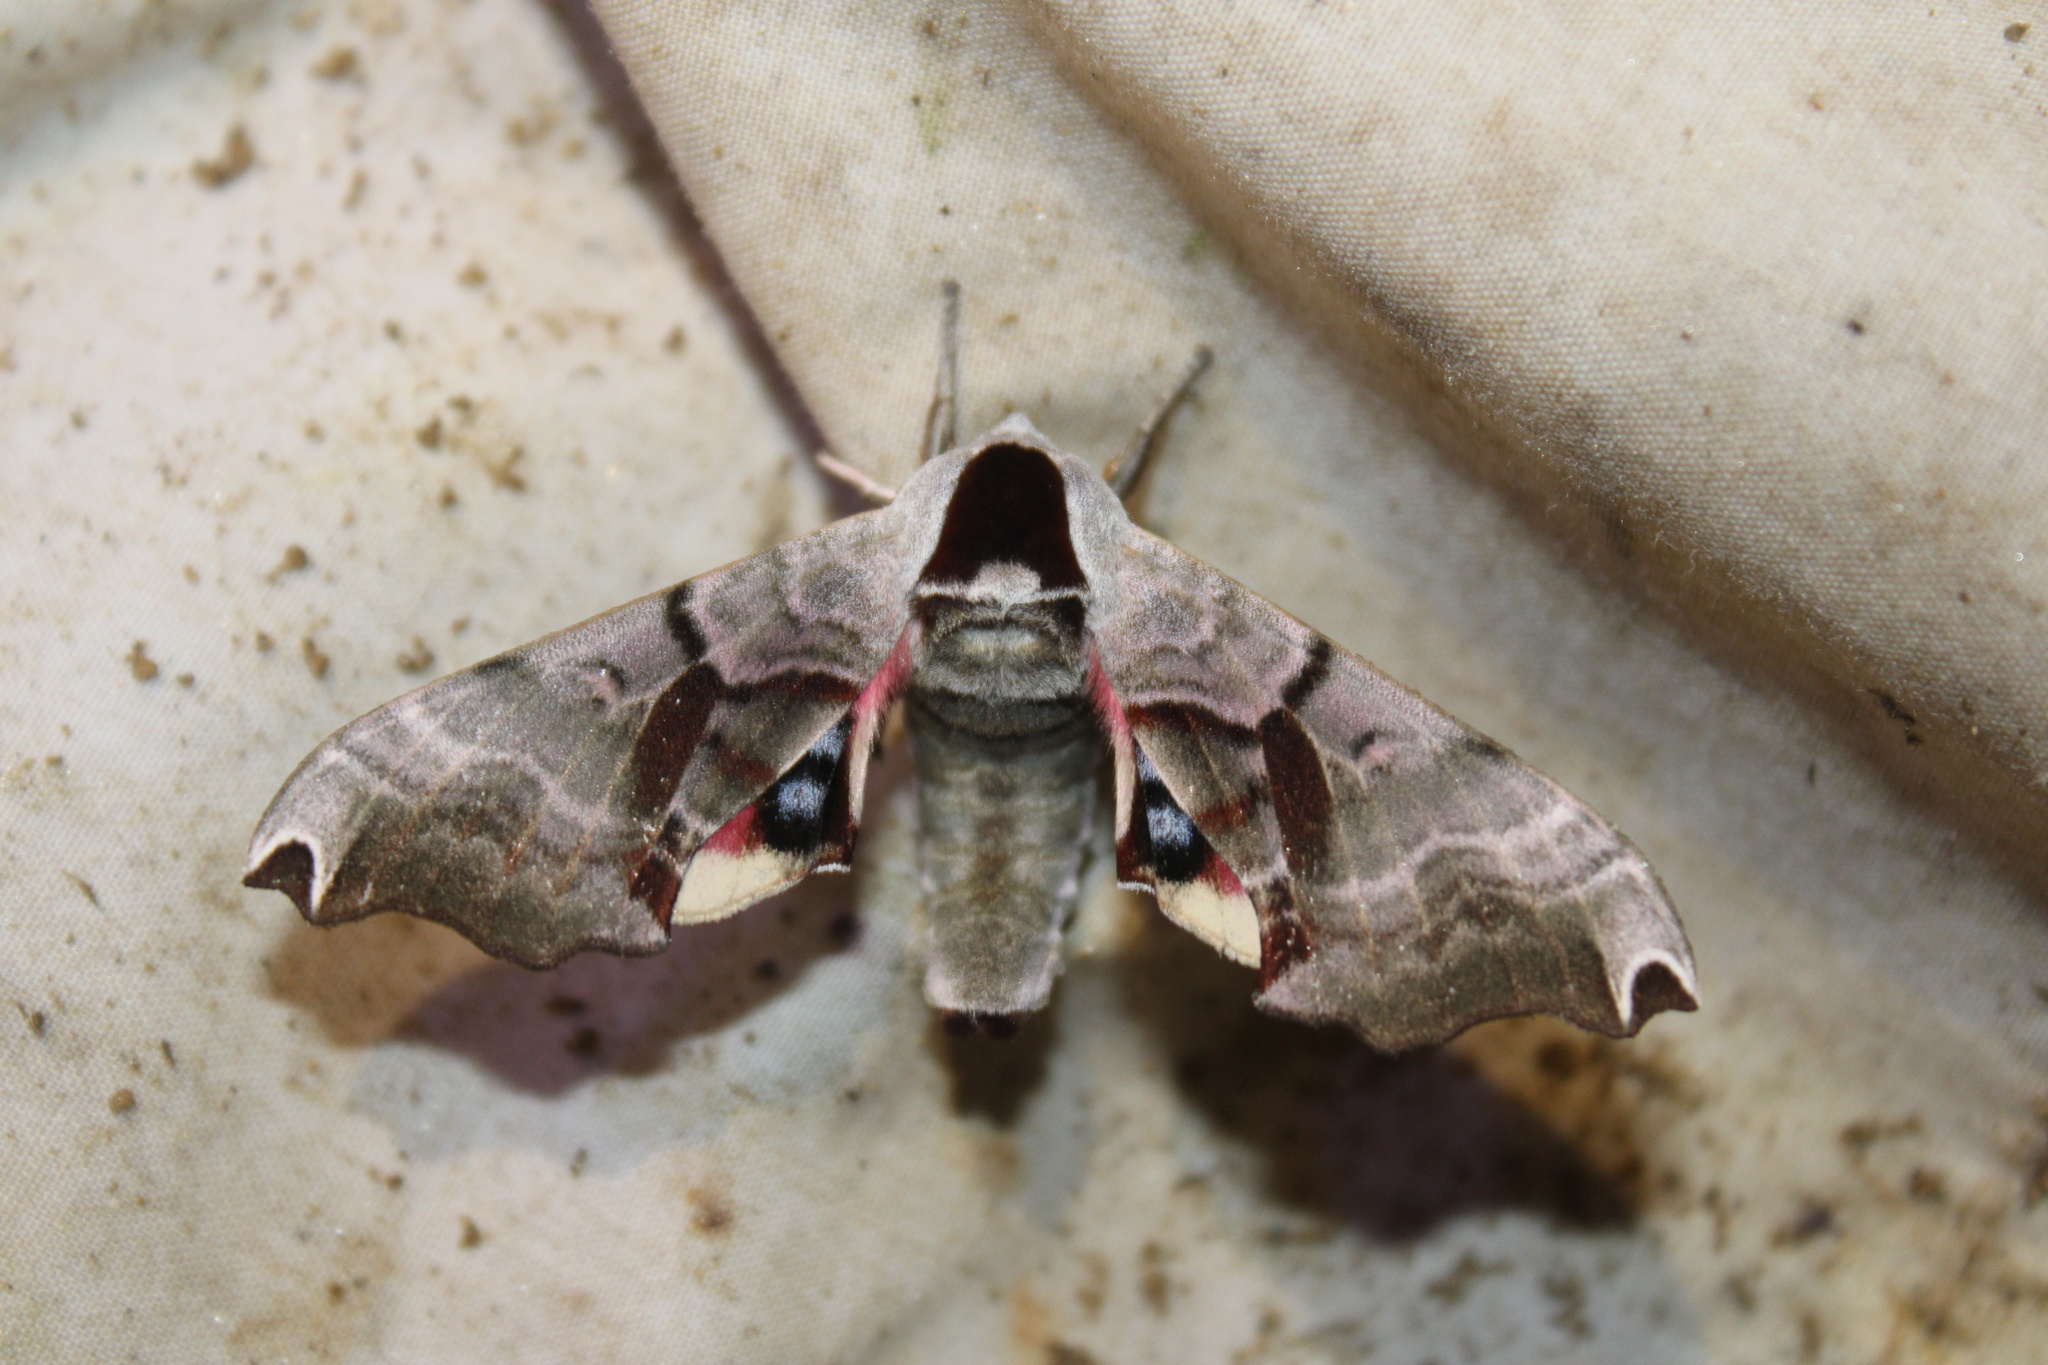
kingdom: Animalia
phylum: Arthropoda
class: Insecta
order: Lepidoptera
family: Sphingidae
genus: Smerinthus
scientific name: Smerinthus jamaicensis
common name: Twin spotted sphinx
